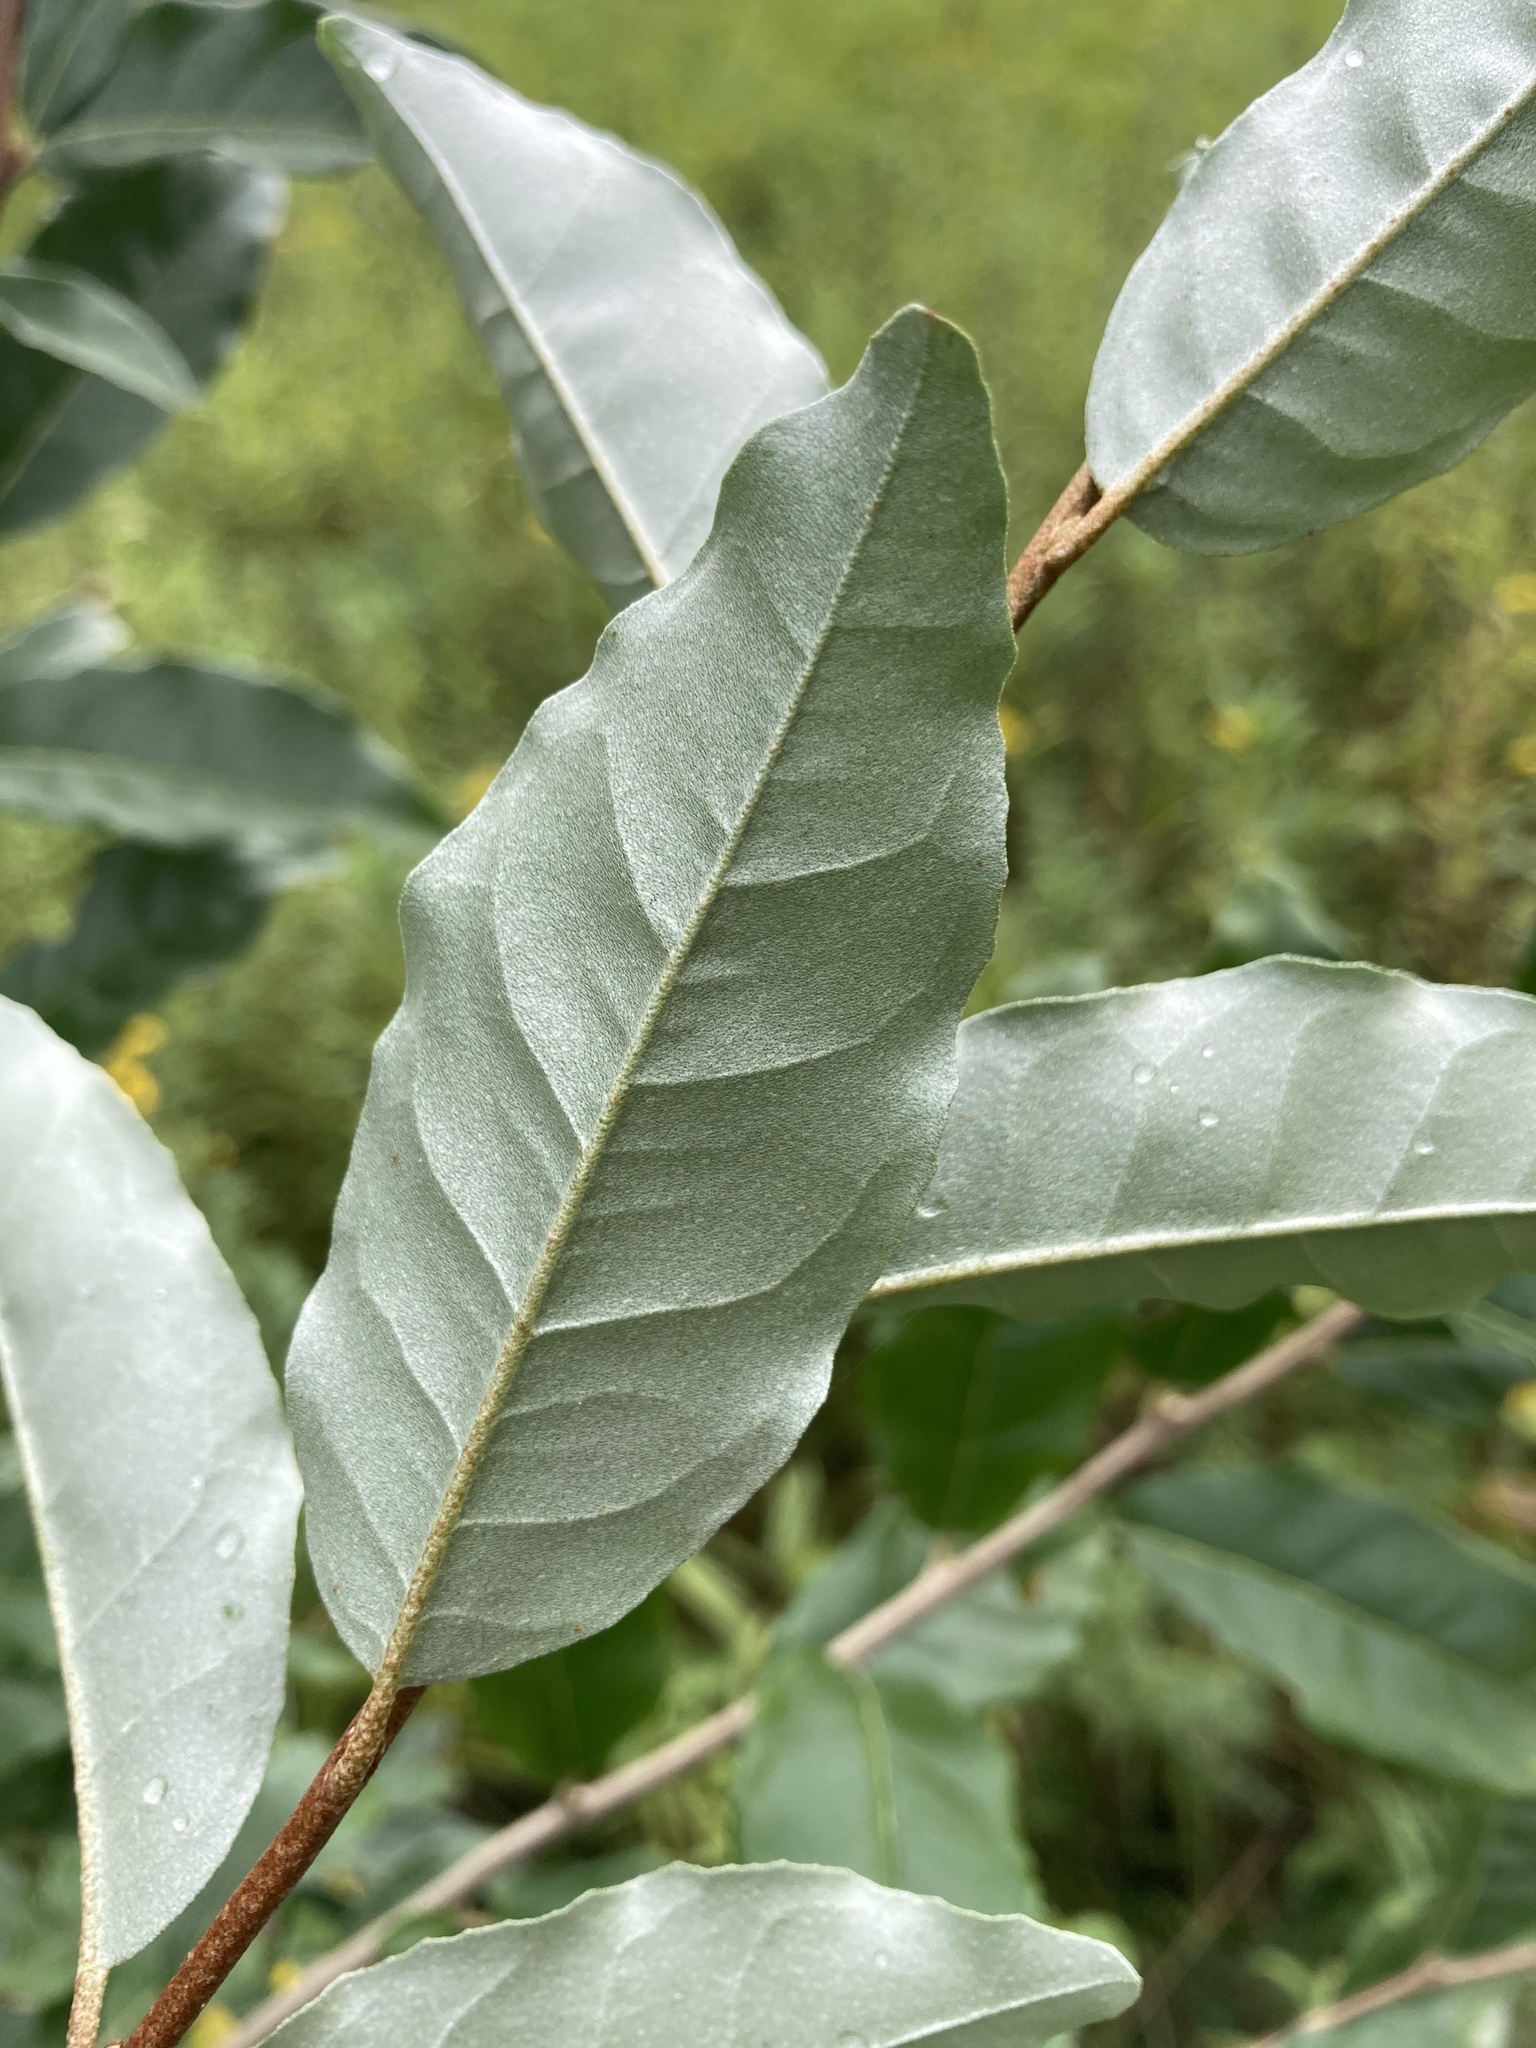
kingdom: Plantae
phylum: Tracheophyta
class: Magnoliopsida
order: Rosales
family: Elaeagnaceae
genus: Elaeagnus
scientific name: Elaeagnus umbellata
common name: Autumn olive
